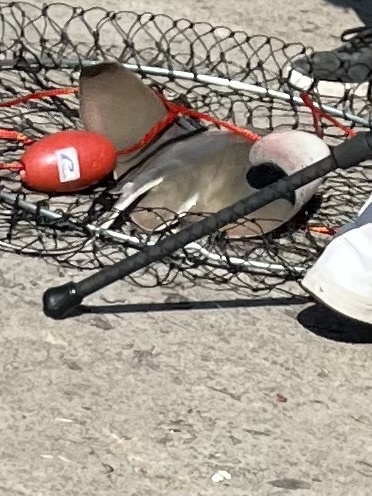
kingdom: Animalia
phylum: Chordata
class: Elasmobranchii
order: Myliobatiformes
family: Myliobatidae
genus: Myliobatis
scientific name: Myliobatis californica
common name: Bat ray
